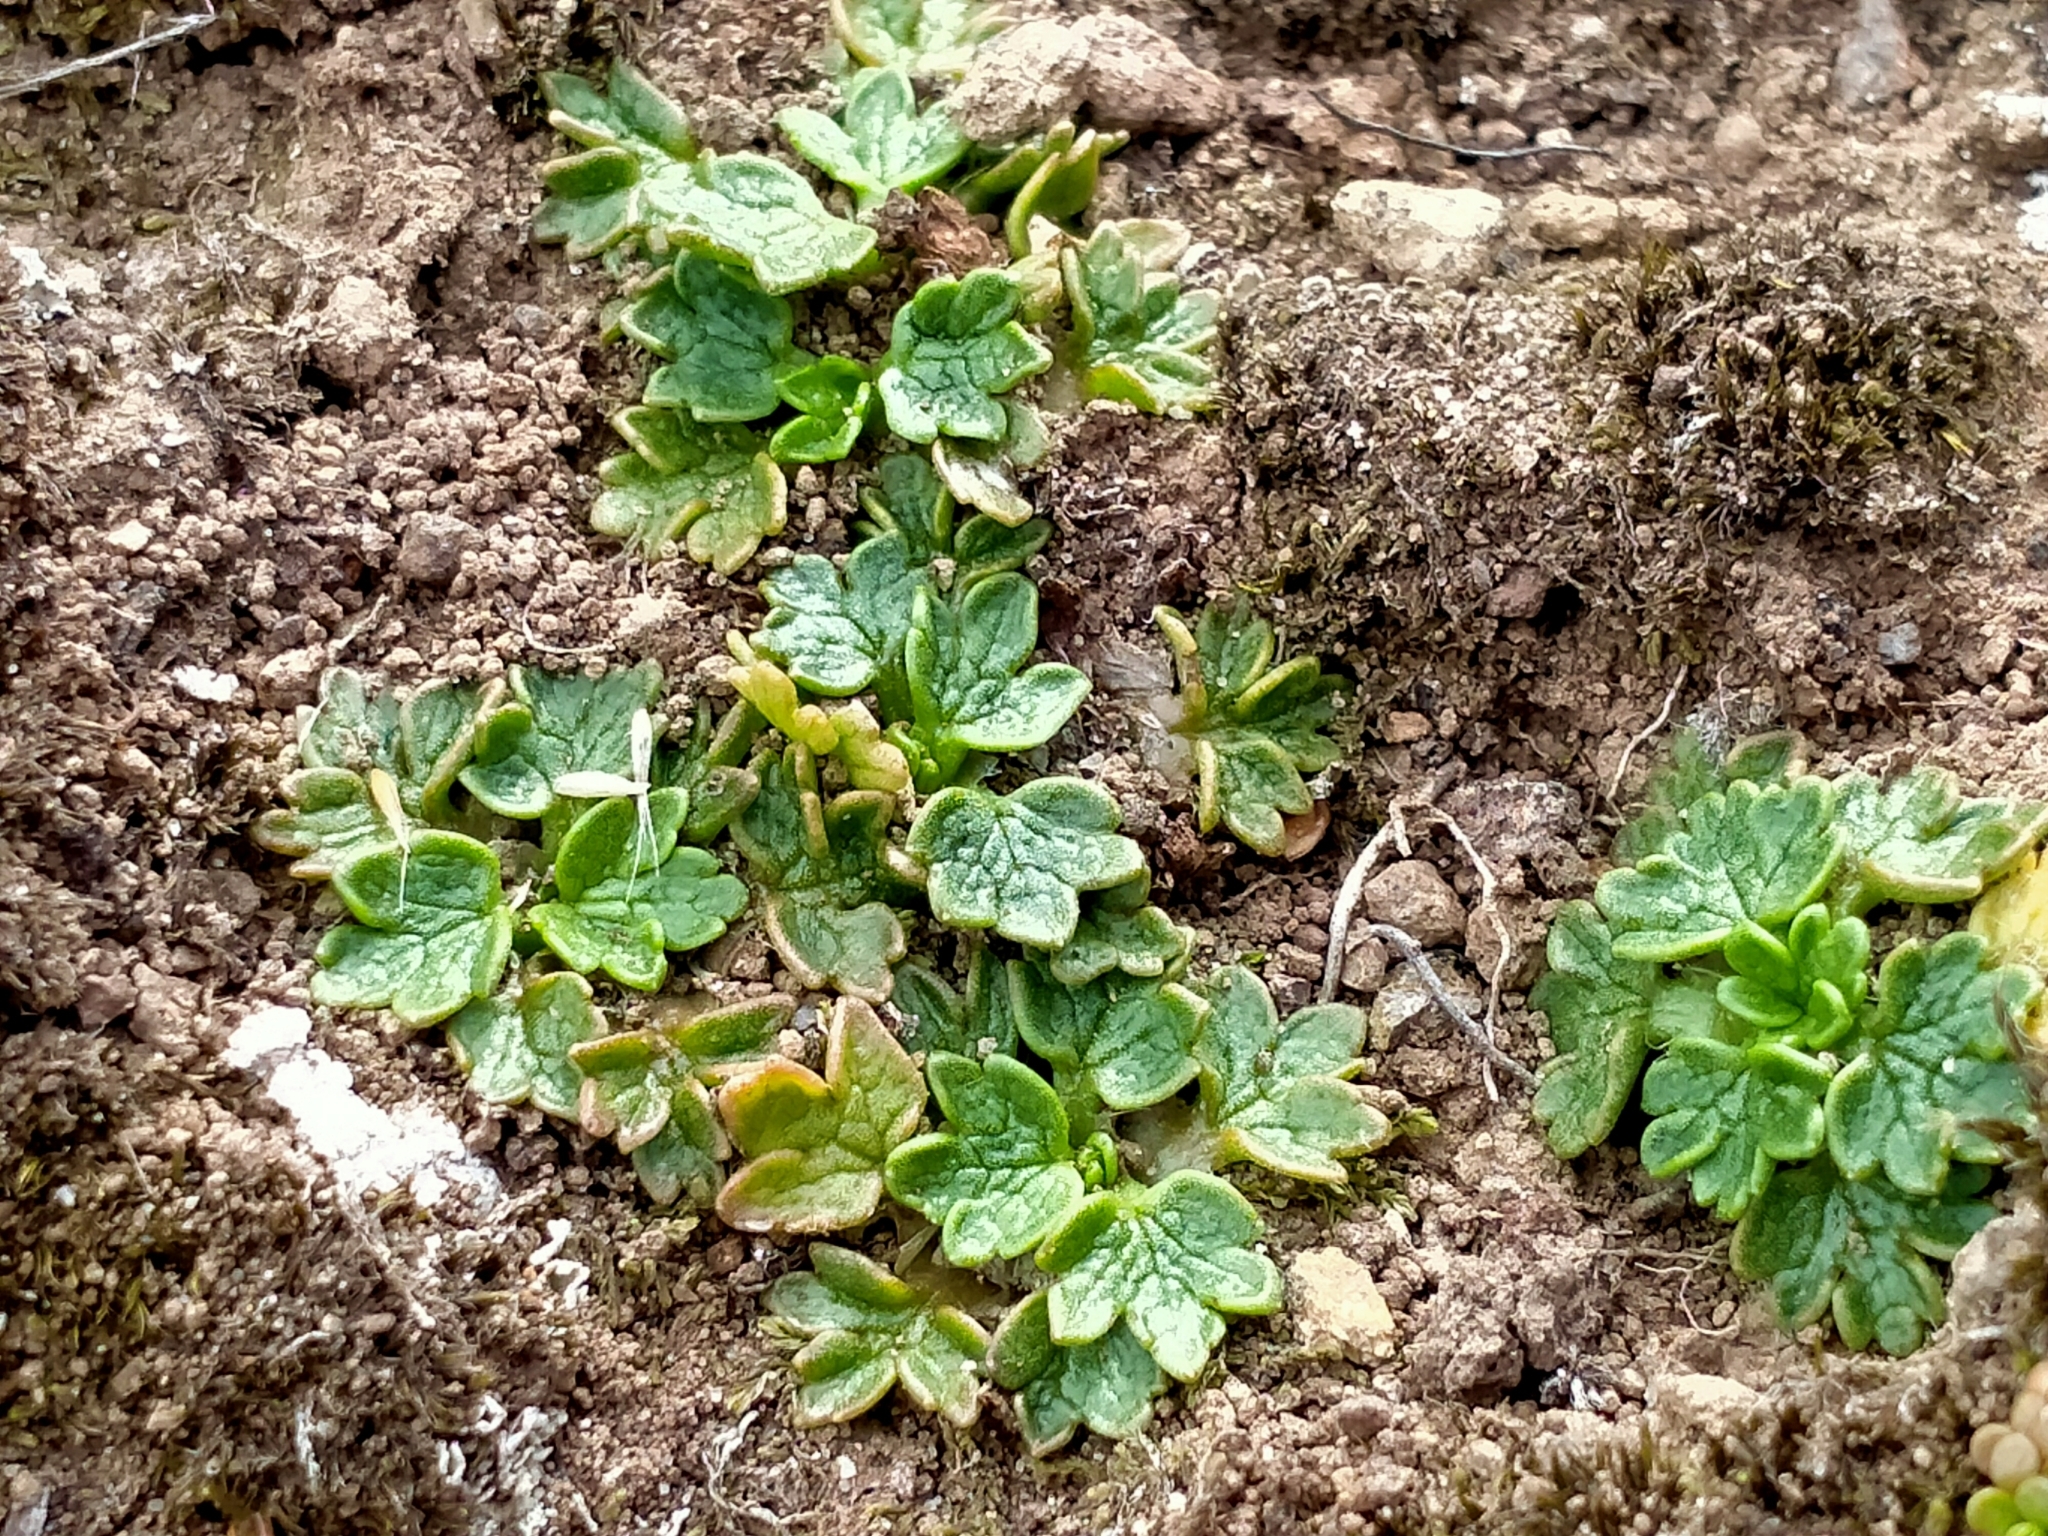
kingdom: Plantae
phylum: Tracheophyta
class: Magnoliopsida
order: Ranunculales
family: Ranunculaceae
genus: Ranunculus
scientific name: Ranunculus recens
